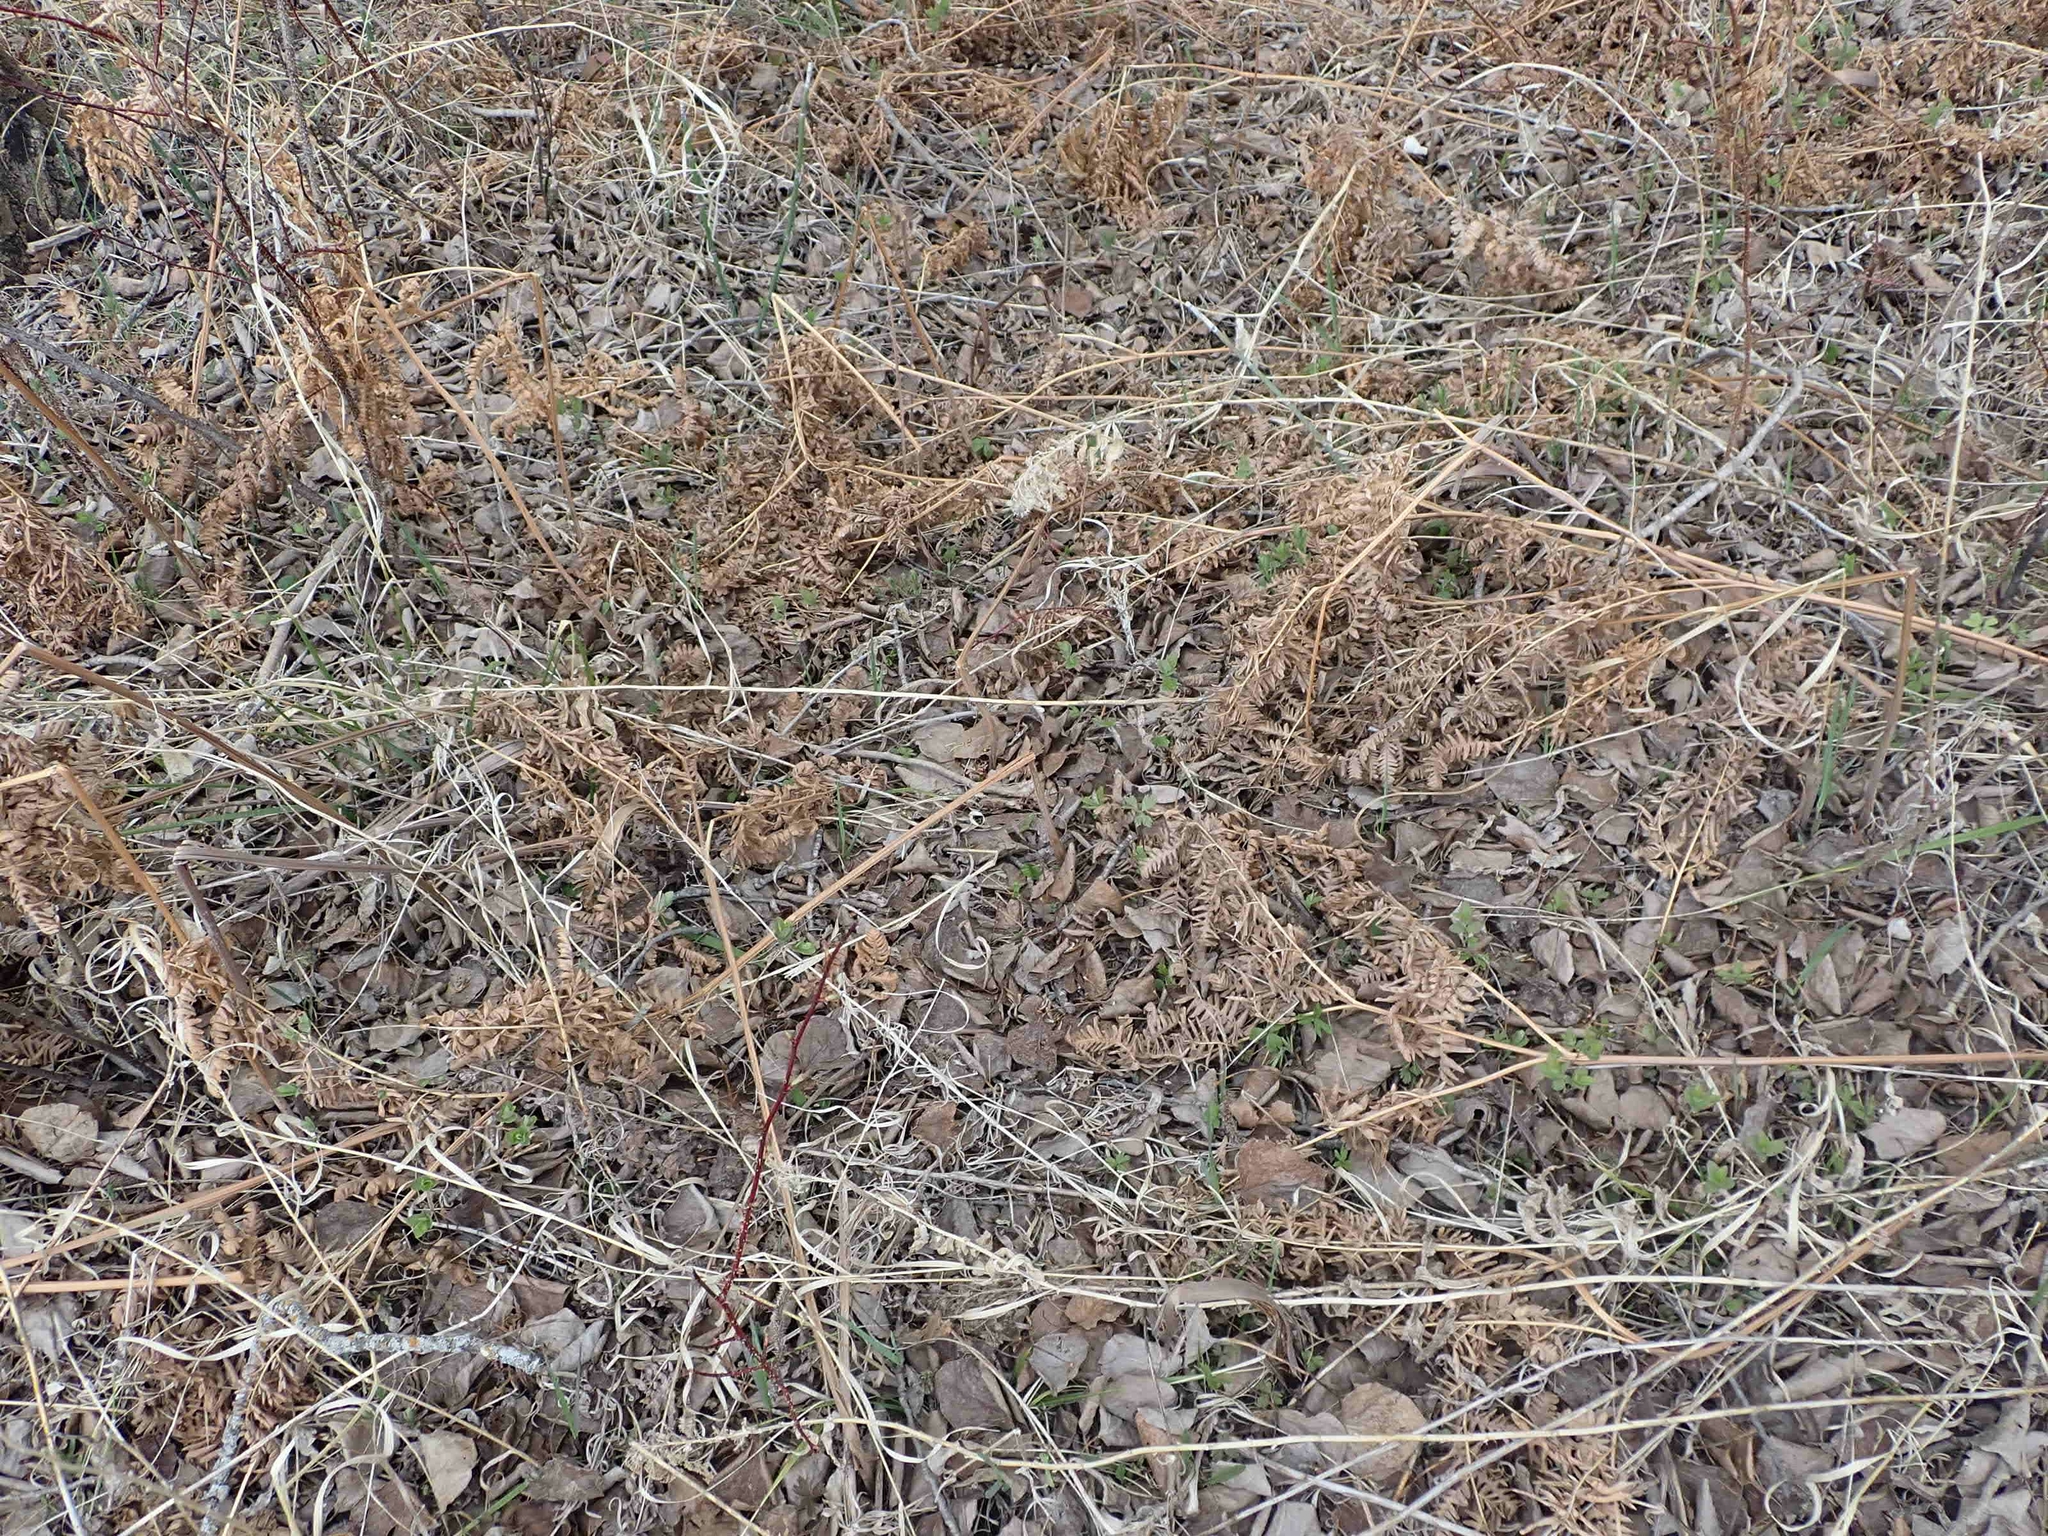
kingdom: Plantae
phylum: Tracheophyta
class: Polypodiopsida
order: Polypodiales
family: Dennstaedtiaceae
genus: Pteridium
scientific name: Pteridium aquilinum
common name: Bracken
